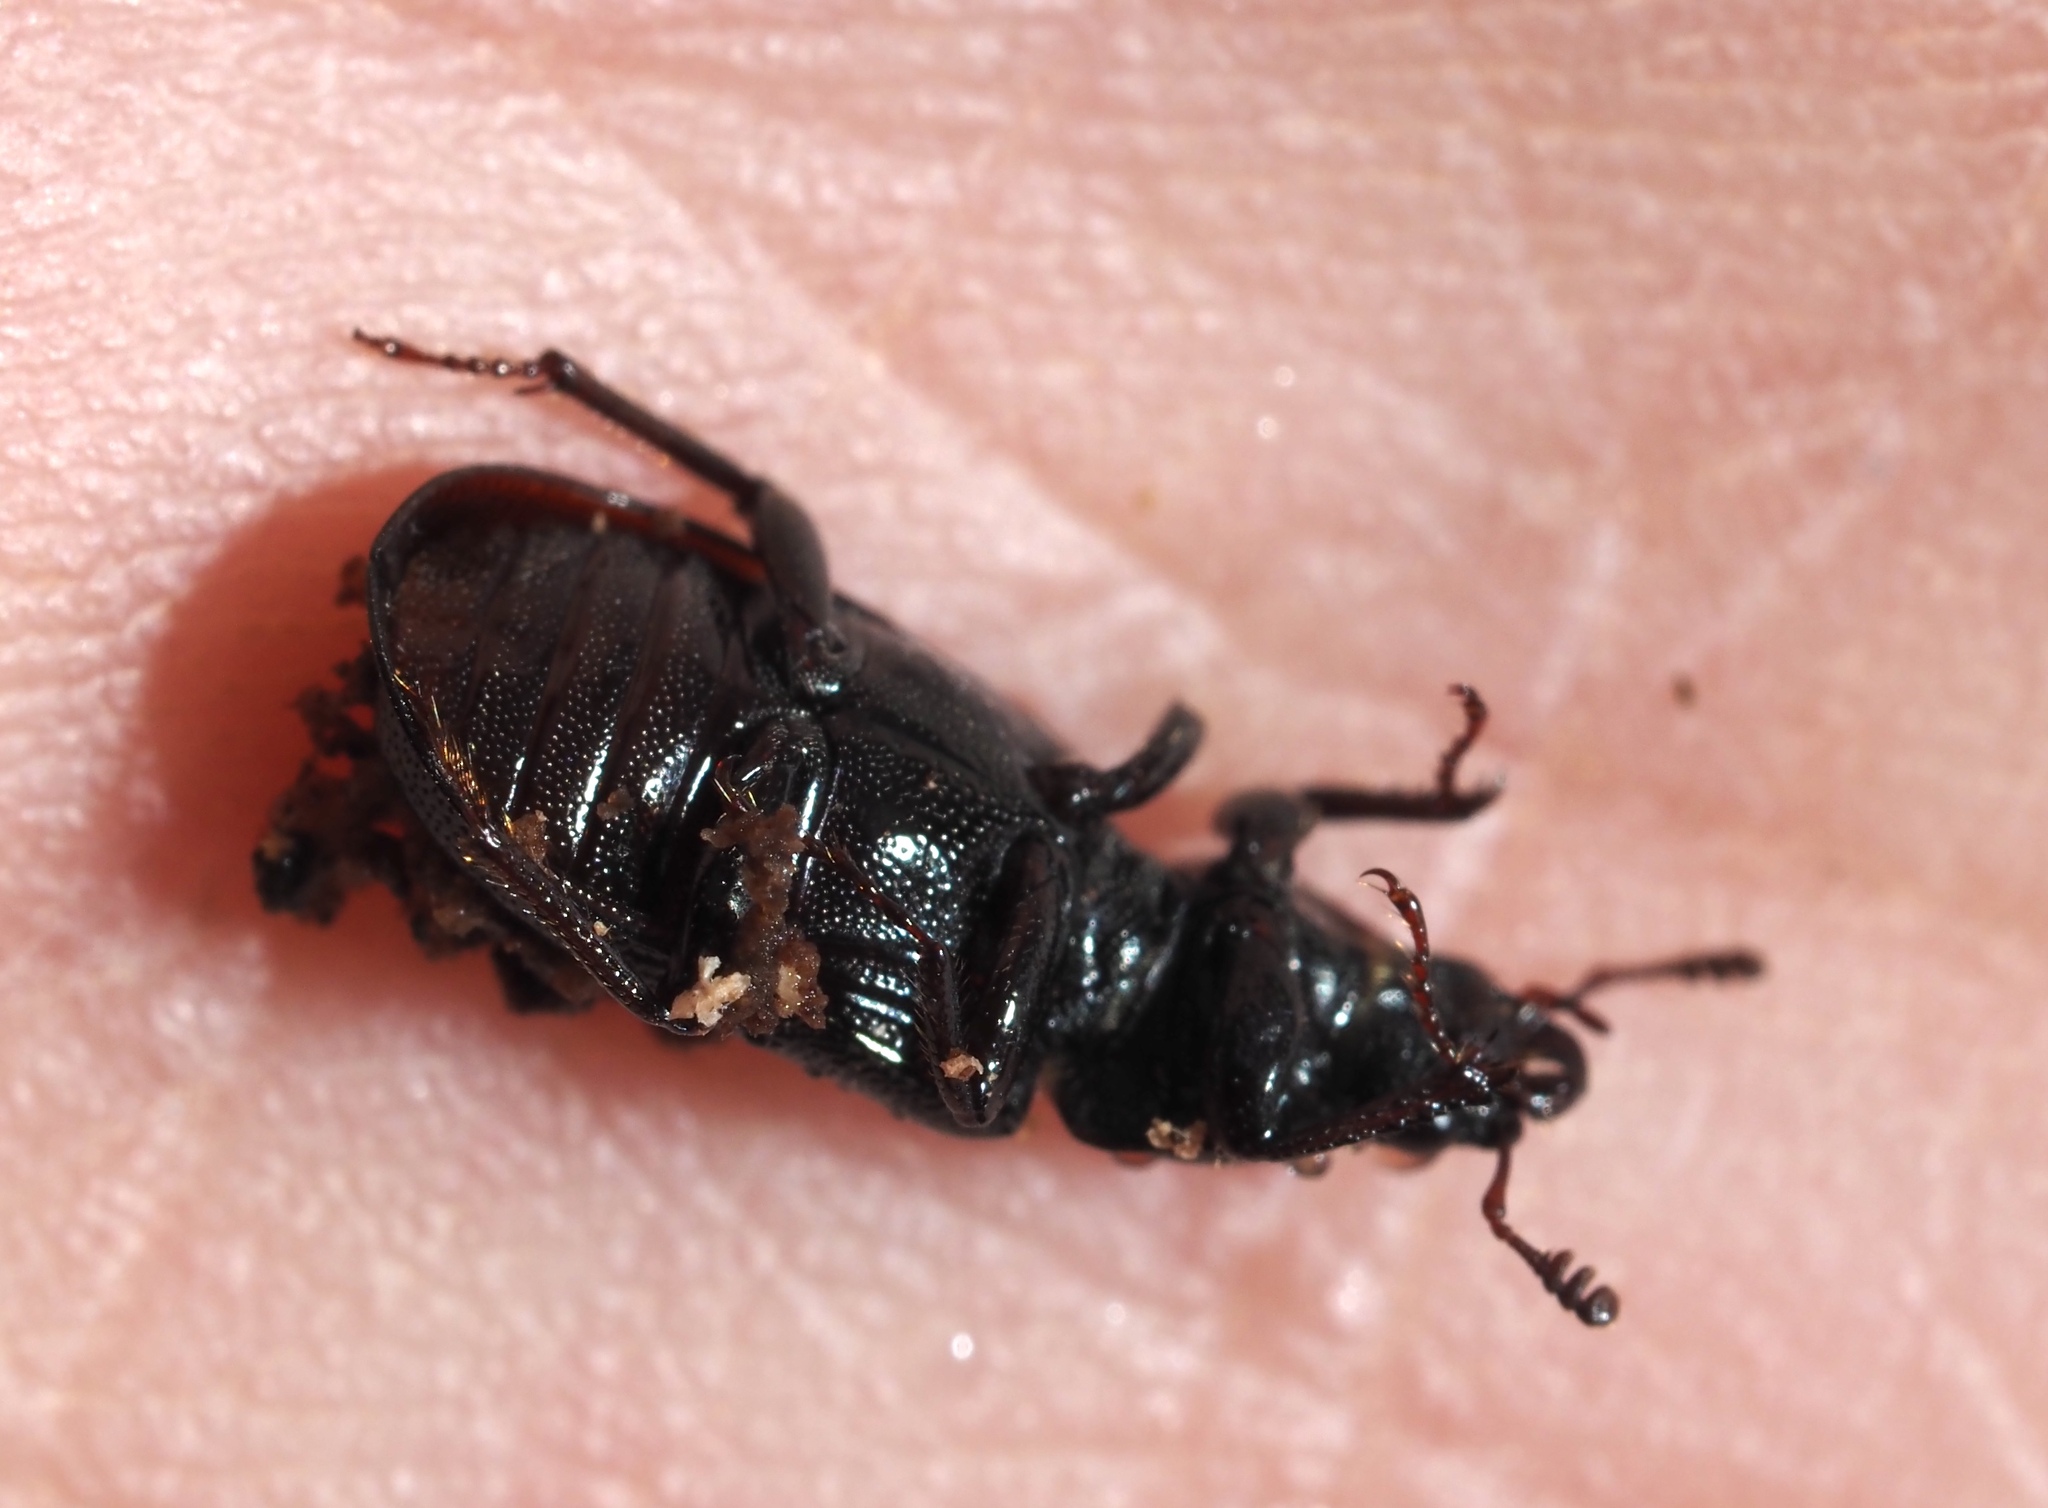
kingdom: Animalia
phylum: Arthropoda
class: Insecta
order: Coleoptera
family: Lucanidae
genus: Platycerus
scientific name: Platycerus quercus
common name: Oak stag beetle
